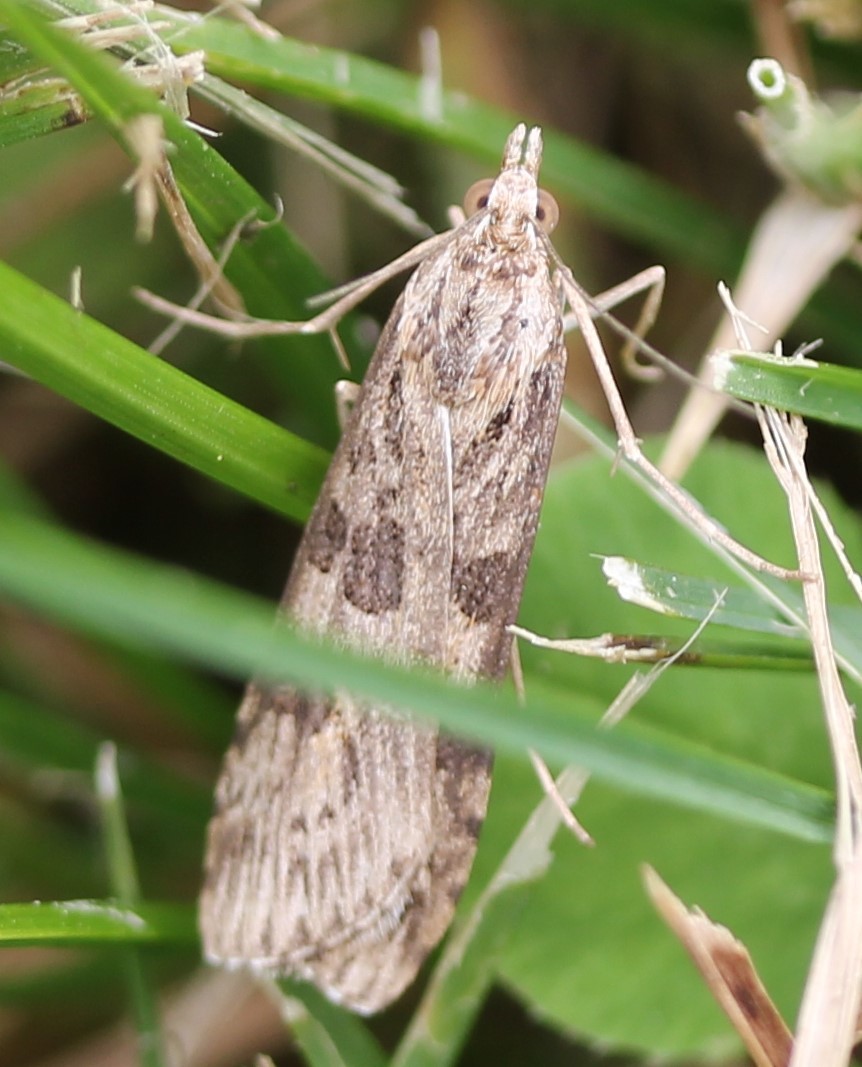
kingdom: Animalia
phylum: Arthropoda
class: Insecta
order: Lepidoptera
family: Crambidae
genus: Nomophila
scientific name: Nomophila nearctica
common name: American rush veneer
